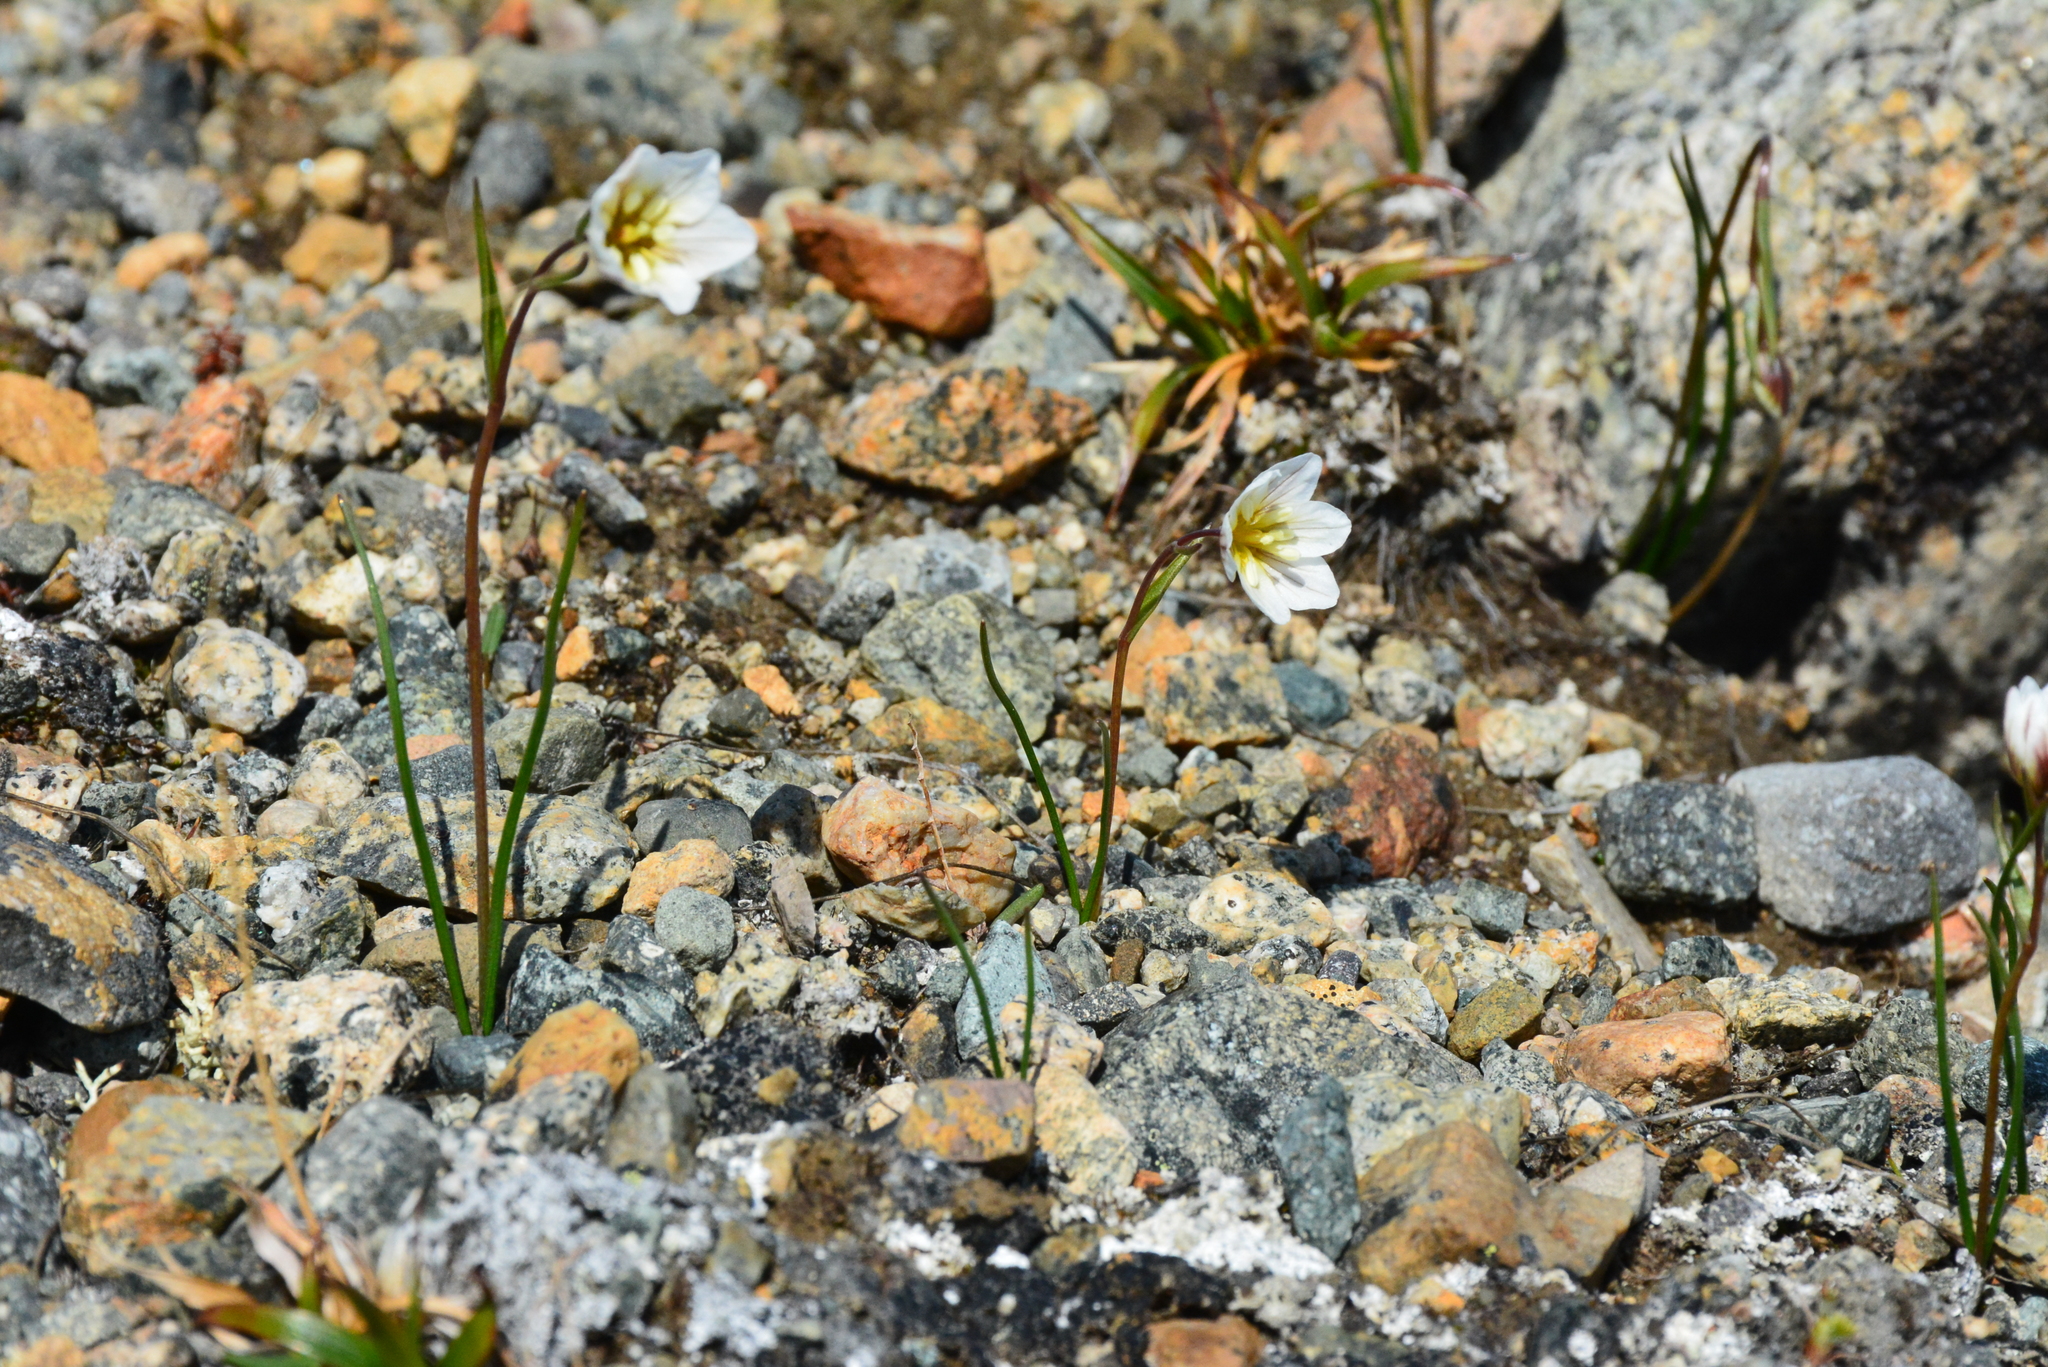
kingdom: Plantae
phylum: Tracheophyta
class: Liliopsida
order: Liliales
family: Liliaceae
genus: Gagea
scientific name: Gagea serotina
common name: Snowdon lily
